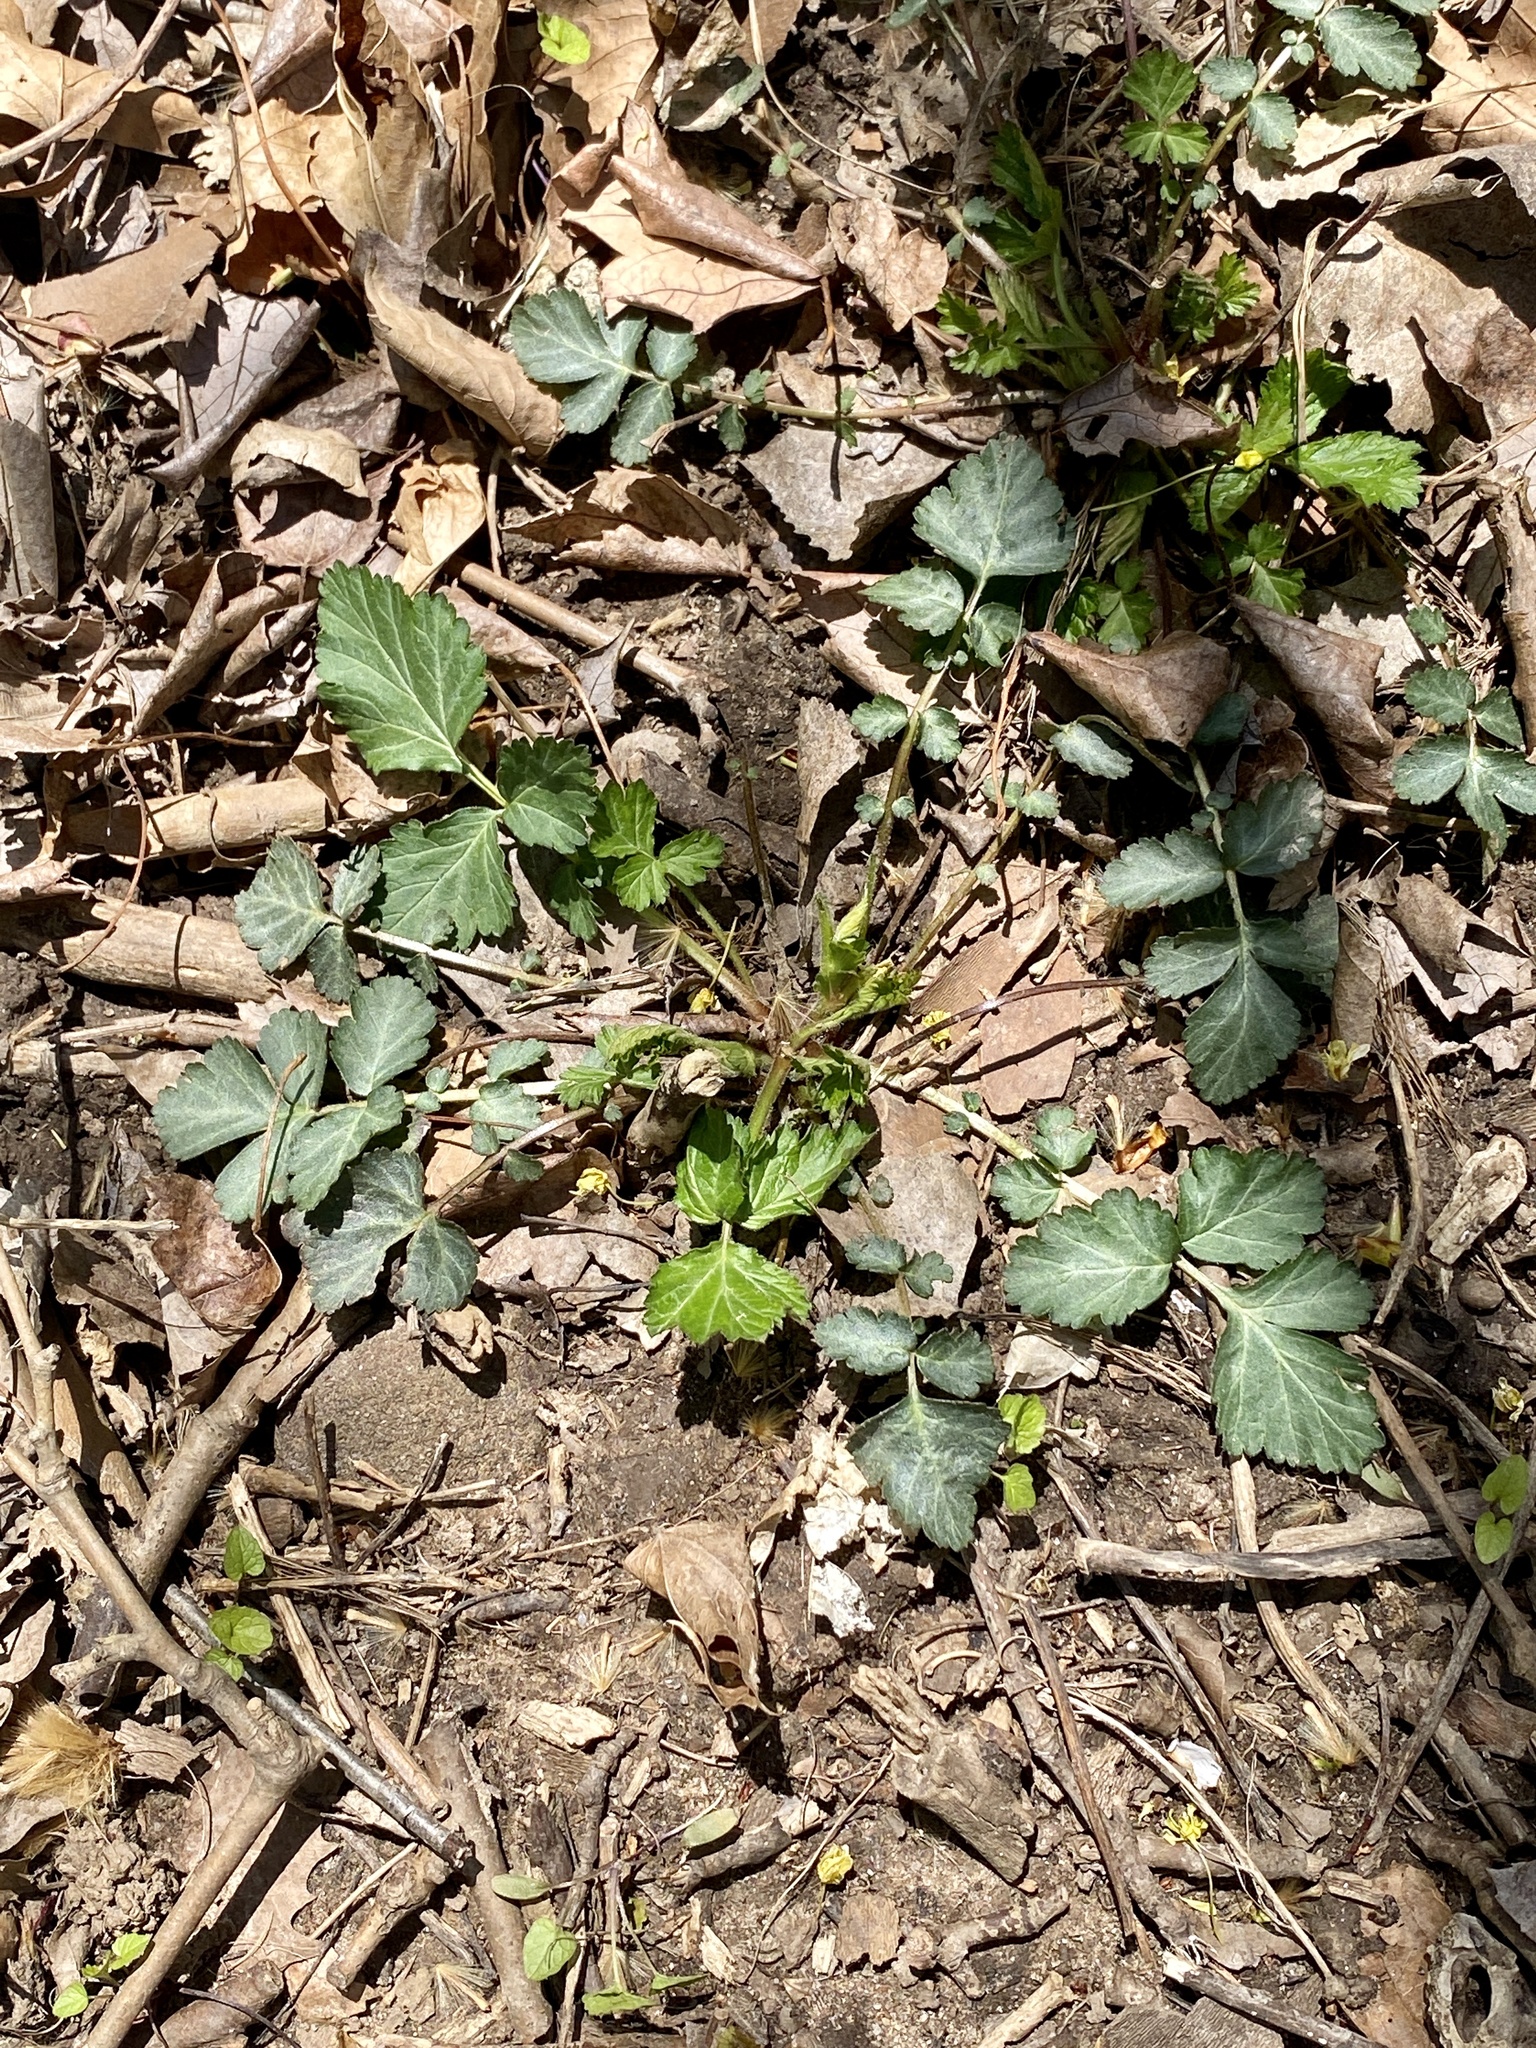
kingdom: Plantae
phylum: Tracheophyta
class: Magnoliopsida
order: Rosales
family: Rosaceae
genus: Geum
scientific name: Geum canadense
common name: White avens
